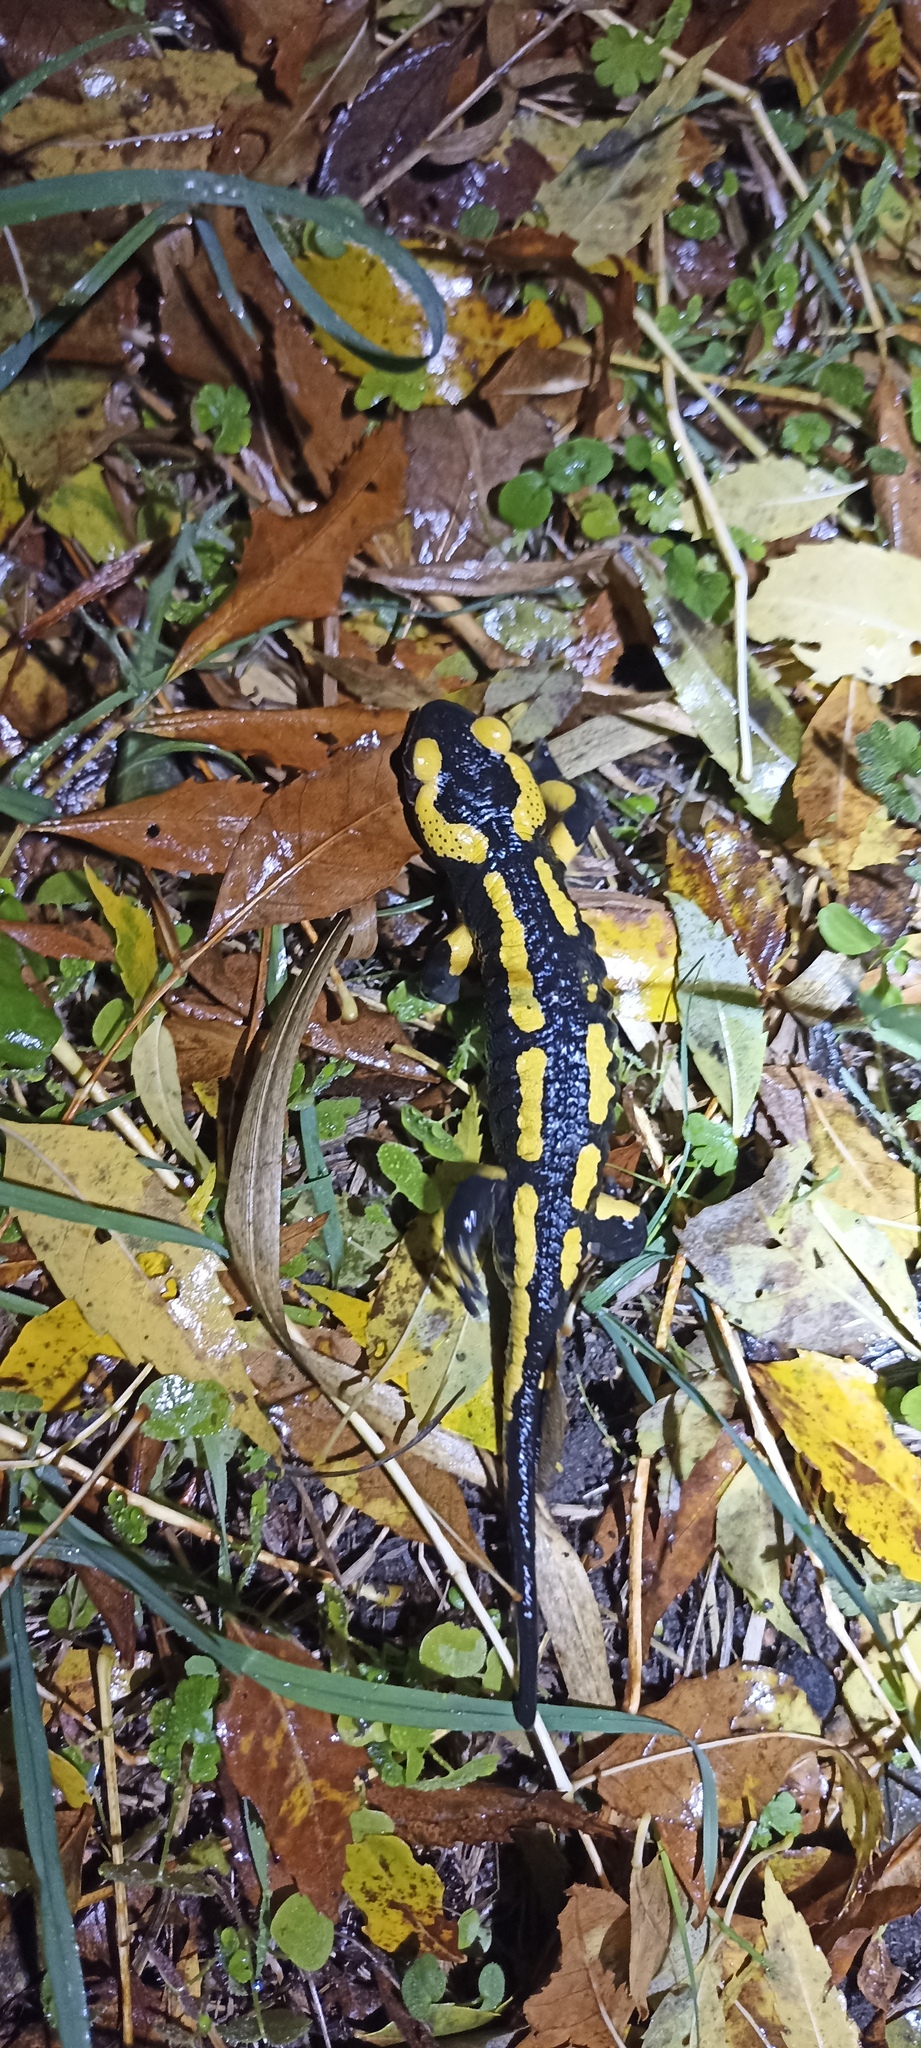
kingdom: Animalia
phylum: Chordata
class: Amphibia
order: Caudata
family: Salamandridae
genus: Salamandra
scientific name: Salamandra salamandra
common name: Fire salamander
